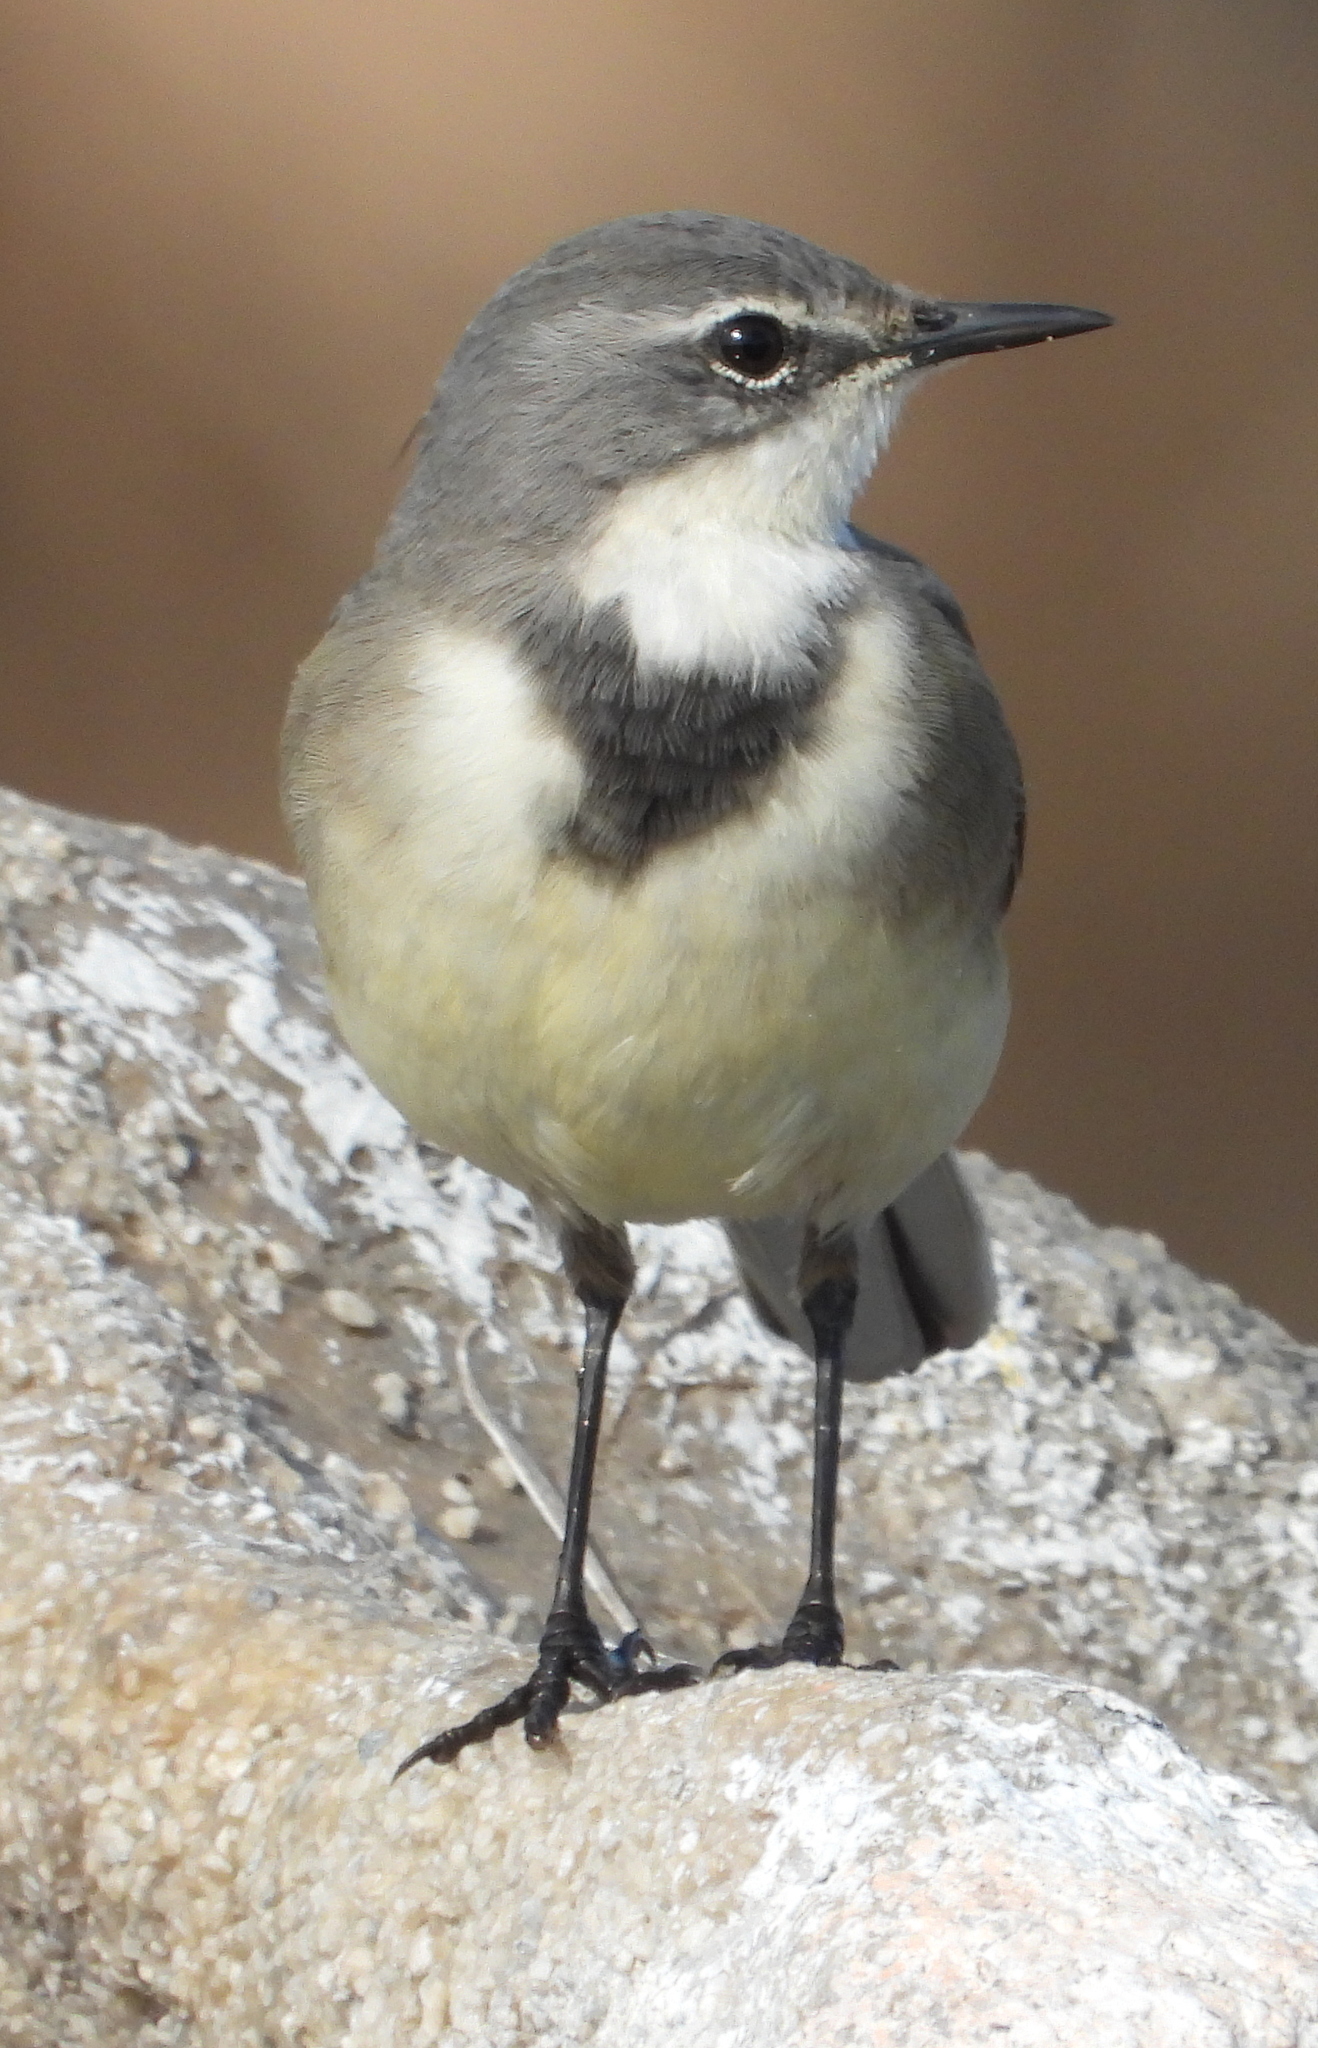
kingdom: Animalia
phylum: Chordata
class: Aves
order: Passeriformes
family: Motacillidae
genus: Motacilla
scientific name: Motacilla capensis
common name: Cape wagtail
